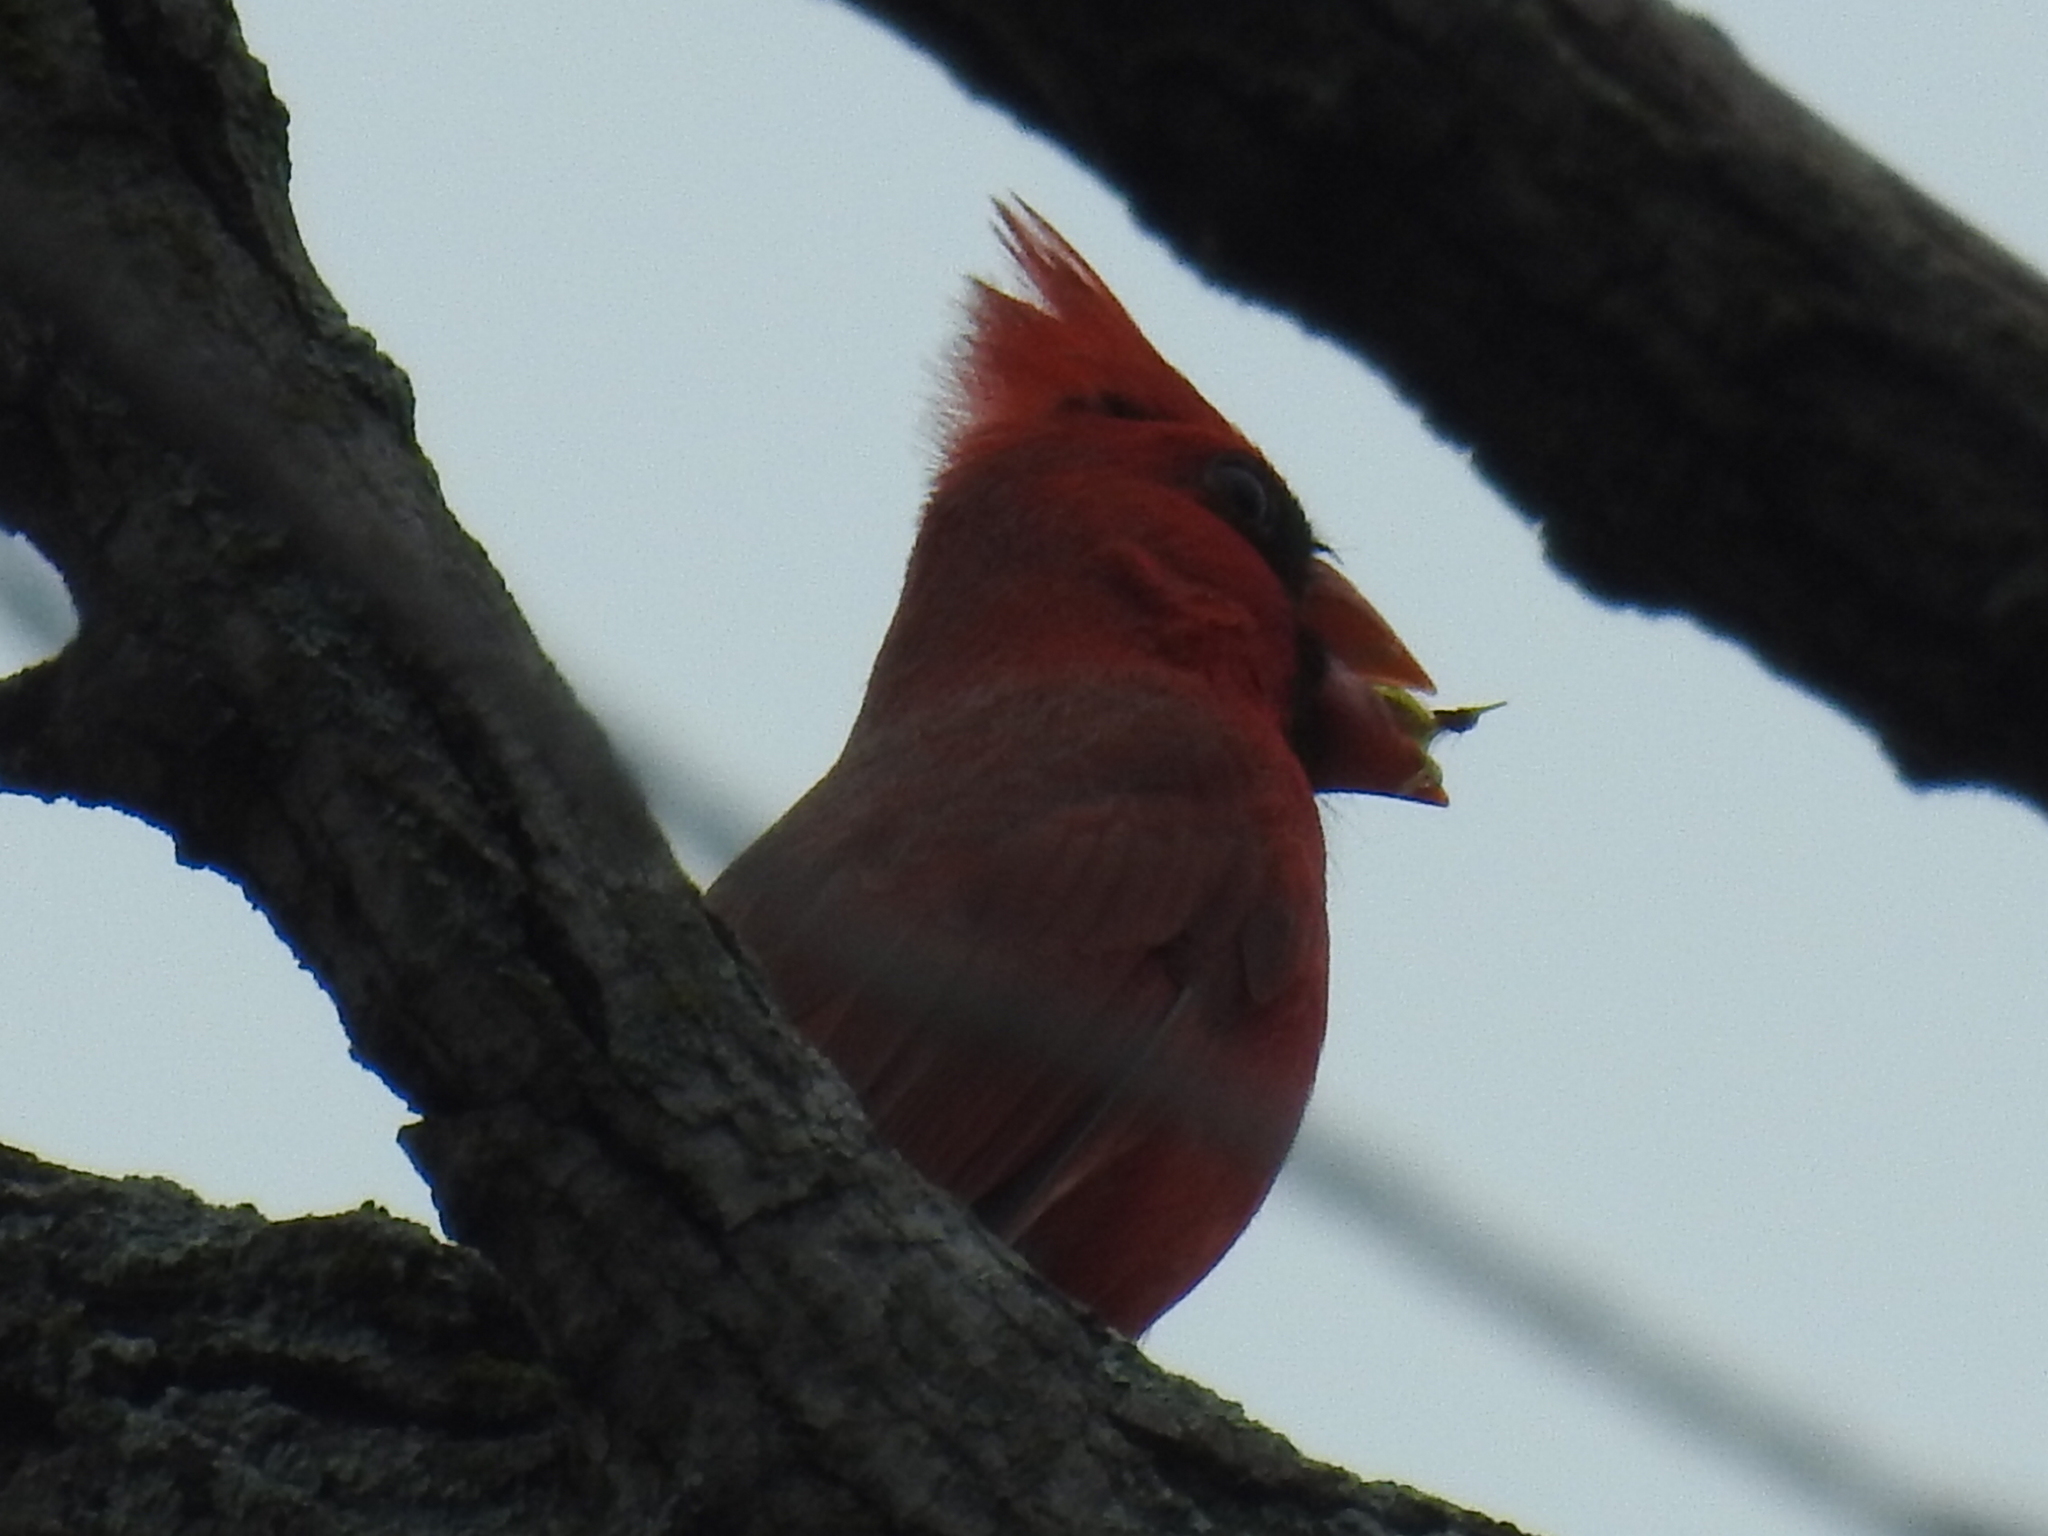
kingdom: Animalia
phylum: Chordata
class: Aves
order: Passeriformes
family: Cardinalidae
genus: Cardinalis
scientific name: Cardinalis cardinalis
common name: Northern cardinal
